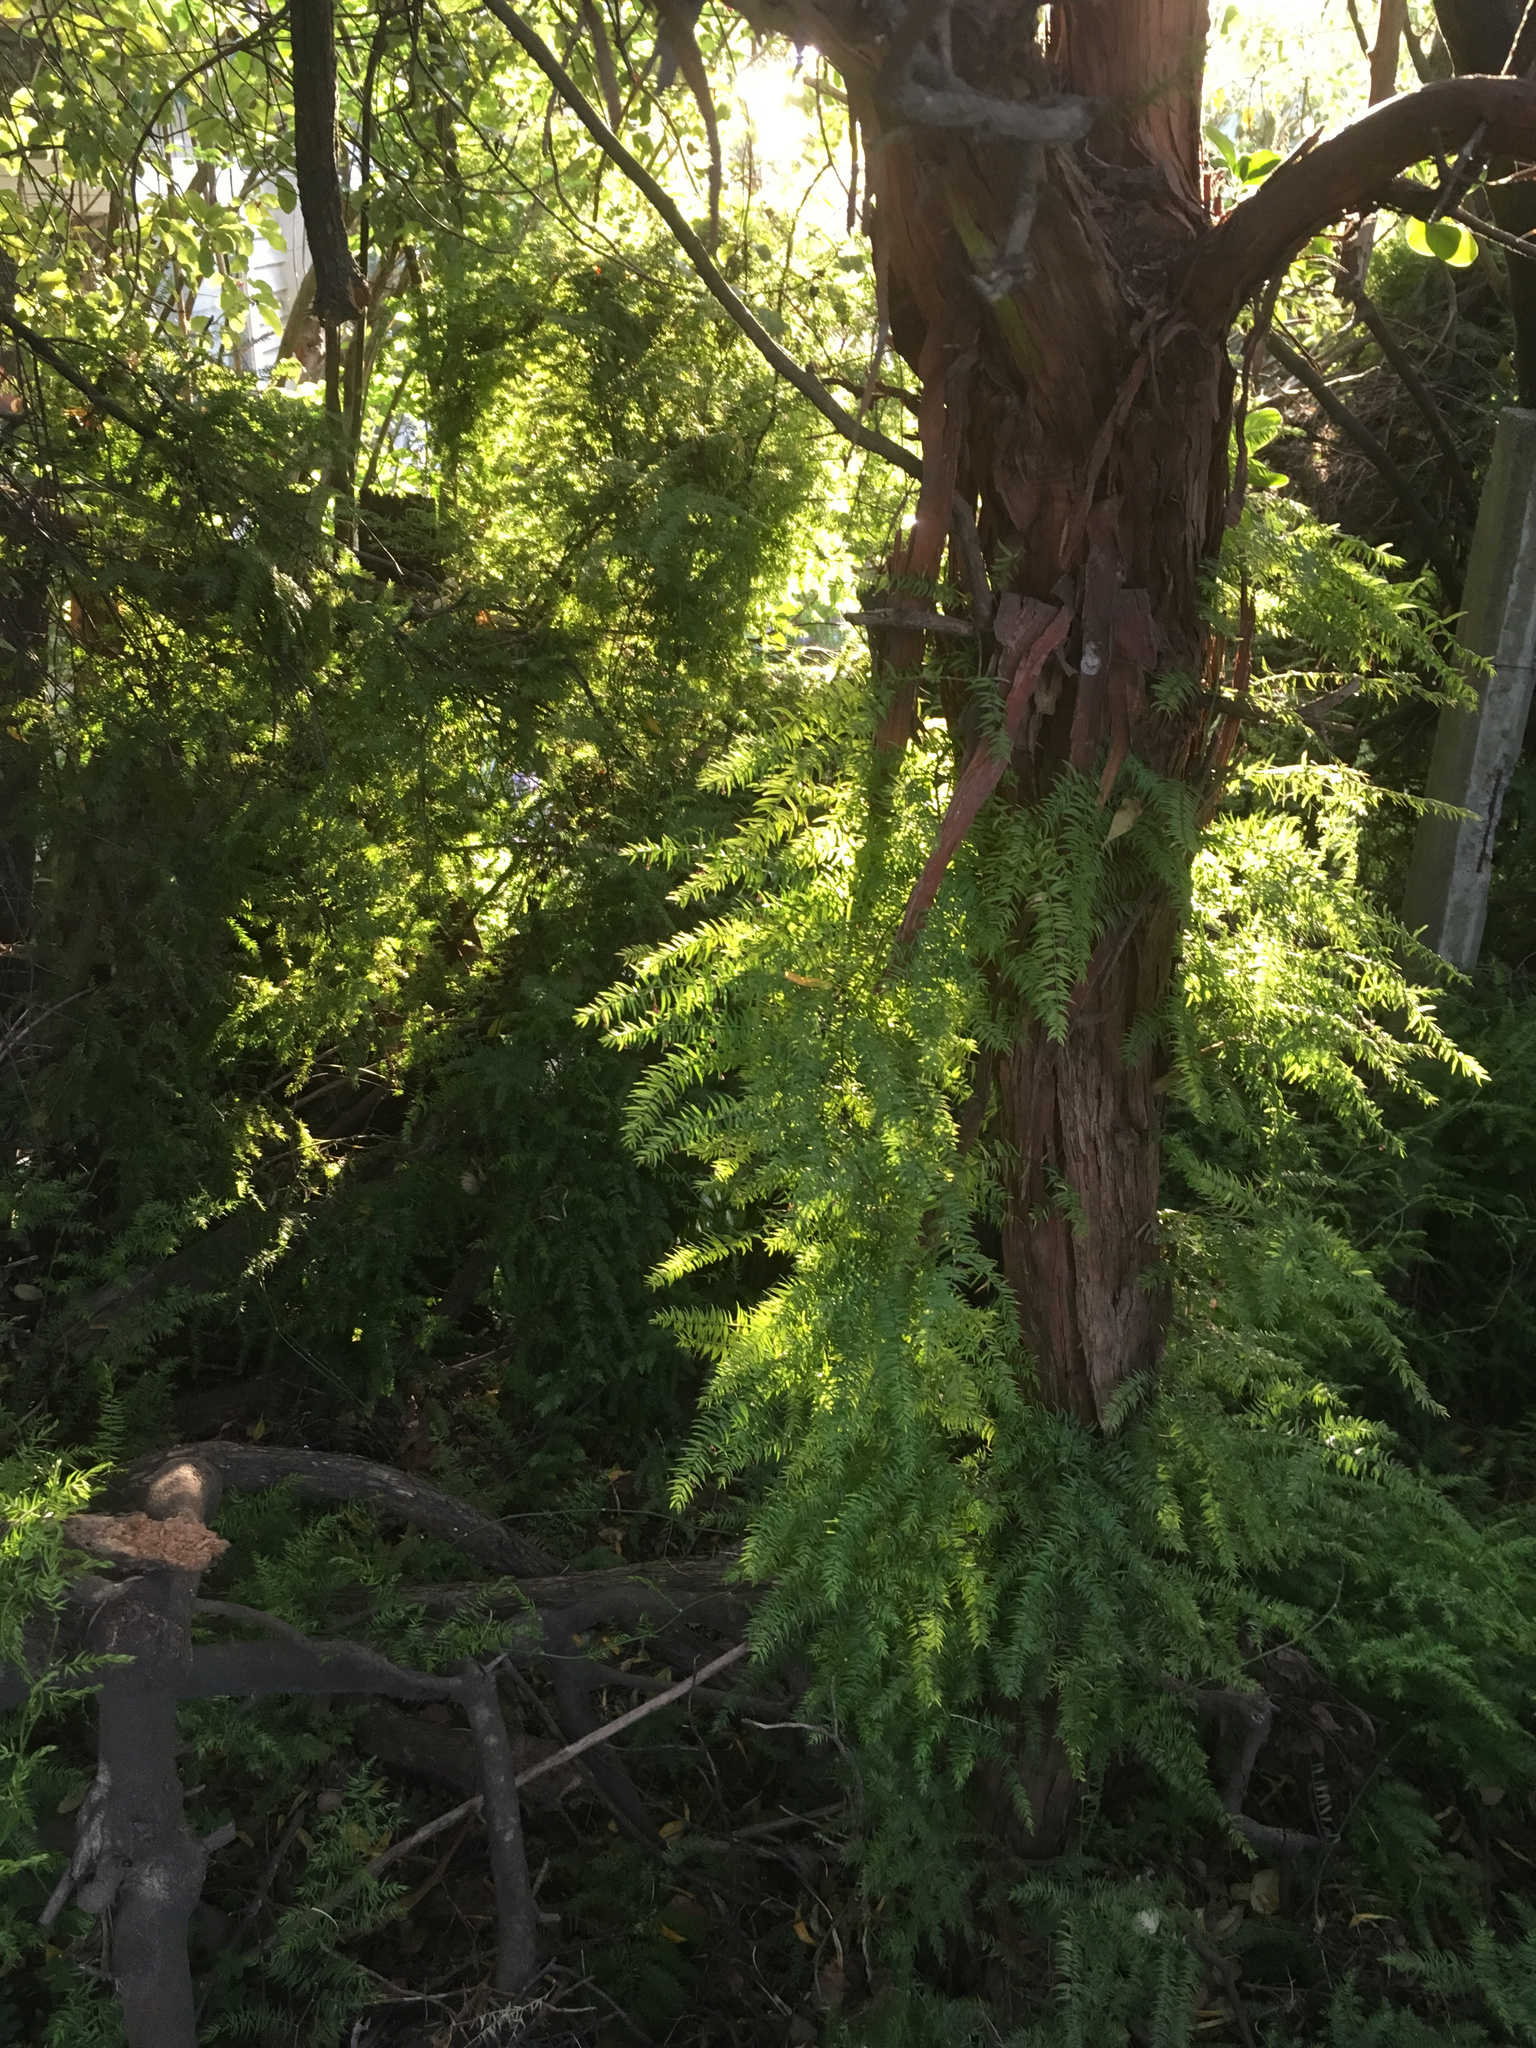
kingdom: Plantae
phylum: Tracheophyta
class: Liliopsida
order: Asparagales
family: Asparagaceae
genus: Asparagus
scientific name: Asparagus scandens
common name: Asparagus-fern
